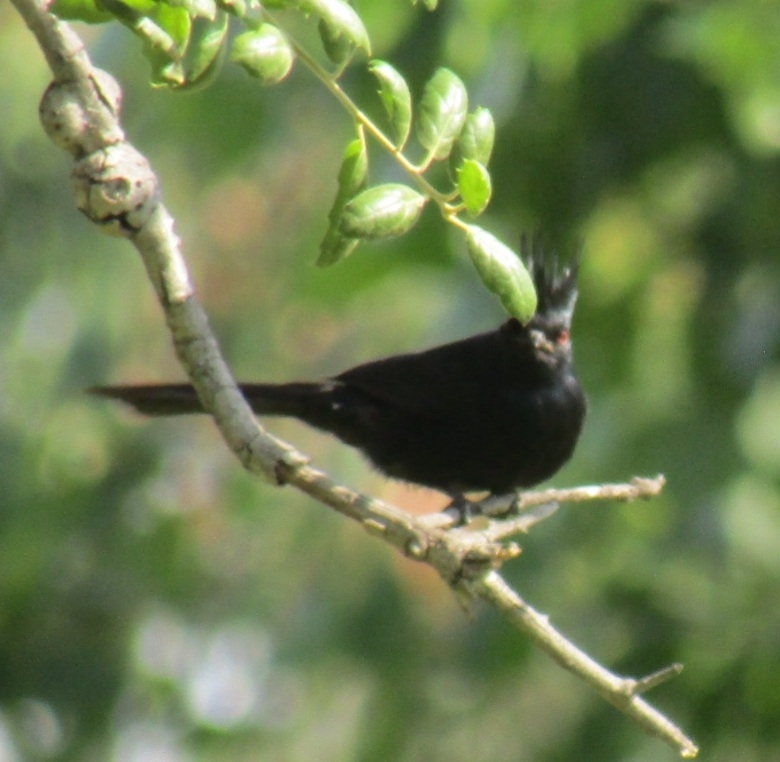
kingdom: Animalia
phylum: Chordata
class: Aves
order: Passeriformes
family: Ptilogonatidae
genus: Phainopepla
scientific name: Phainopepla nitens
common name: Phainopepla
